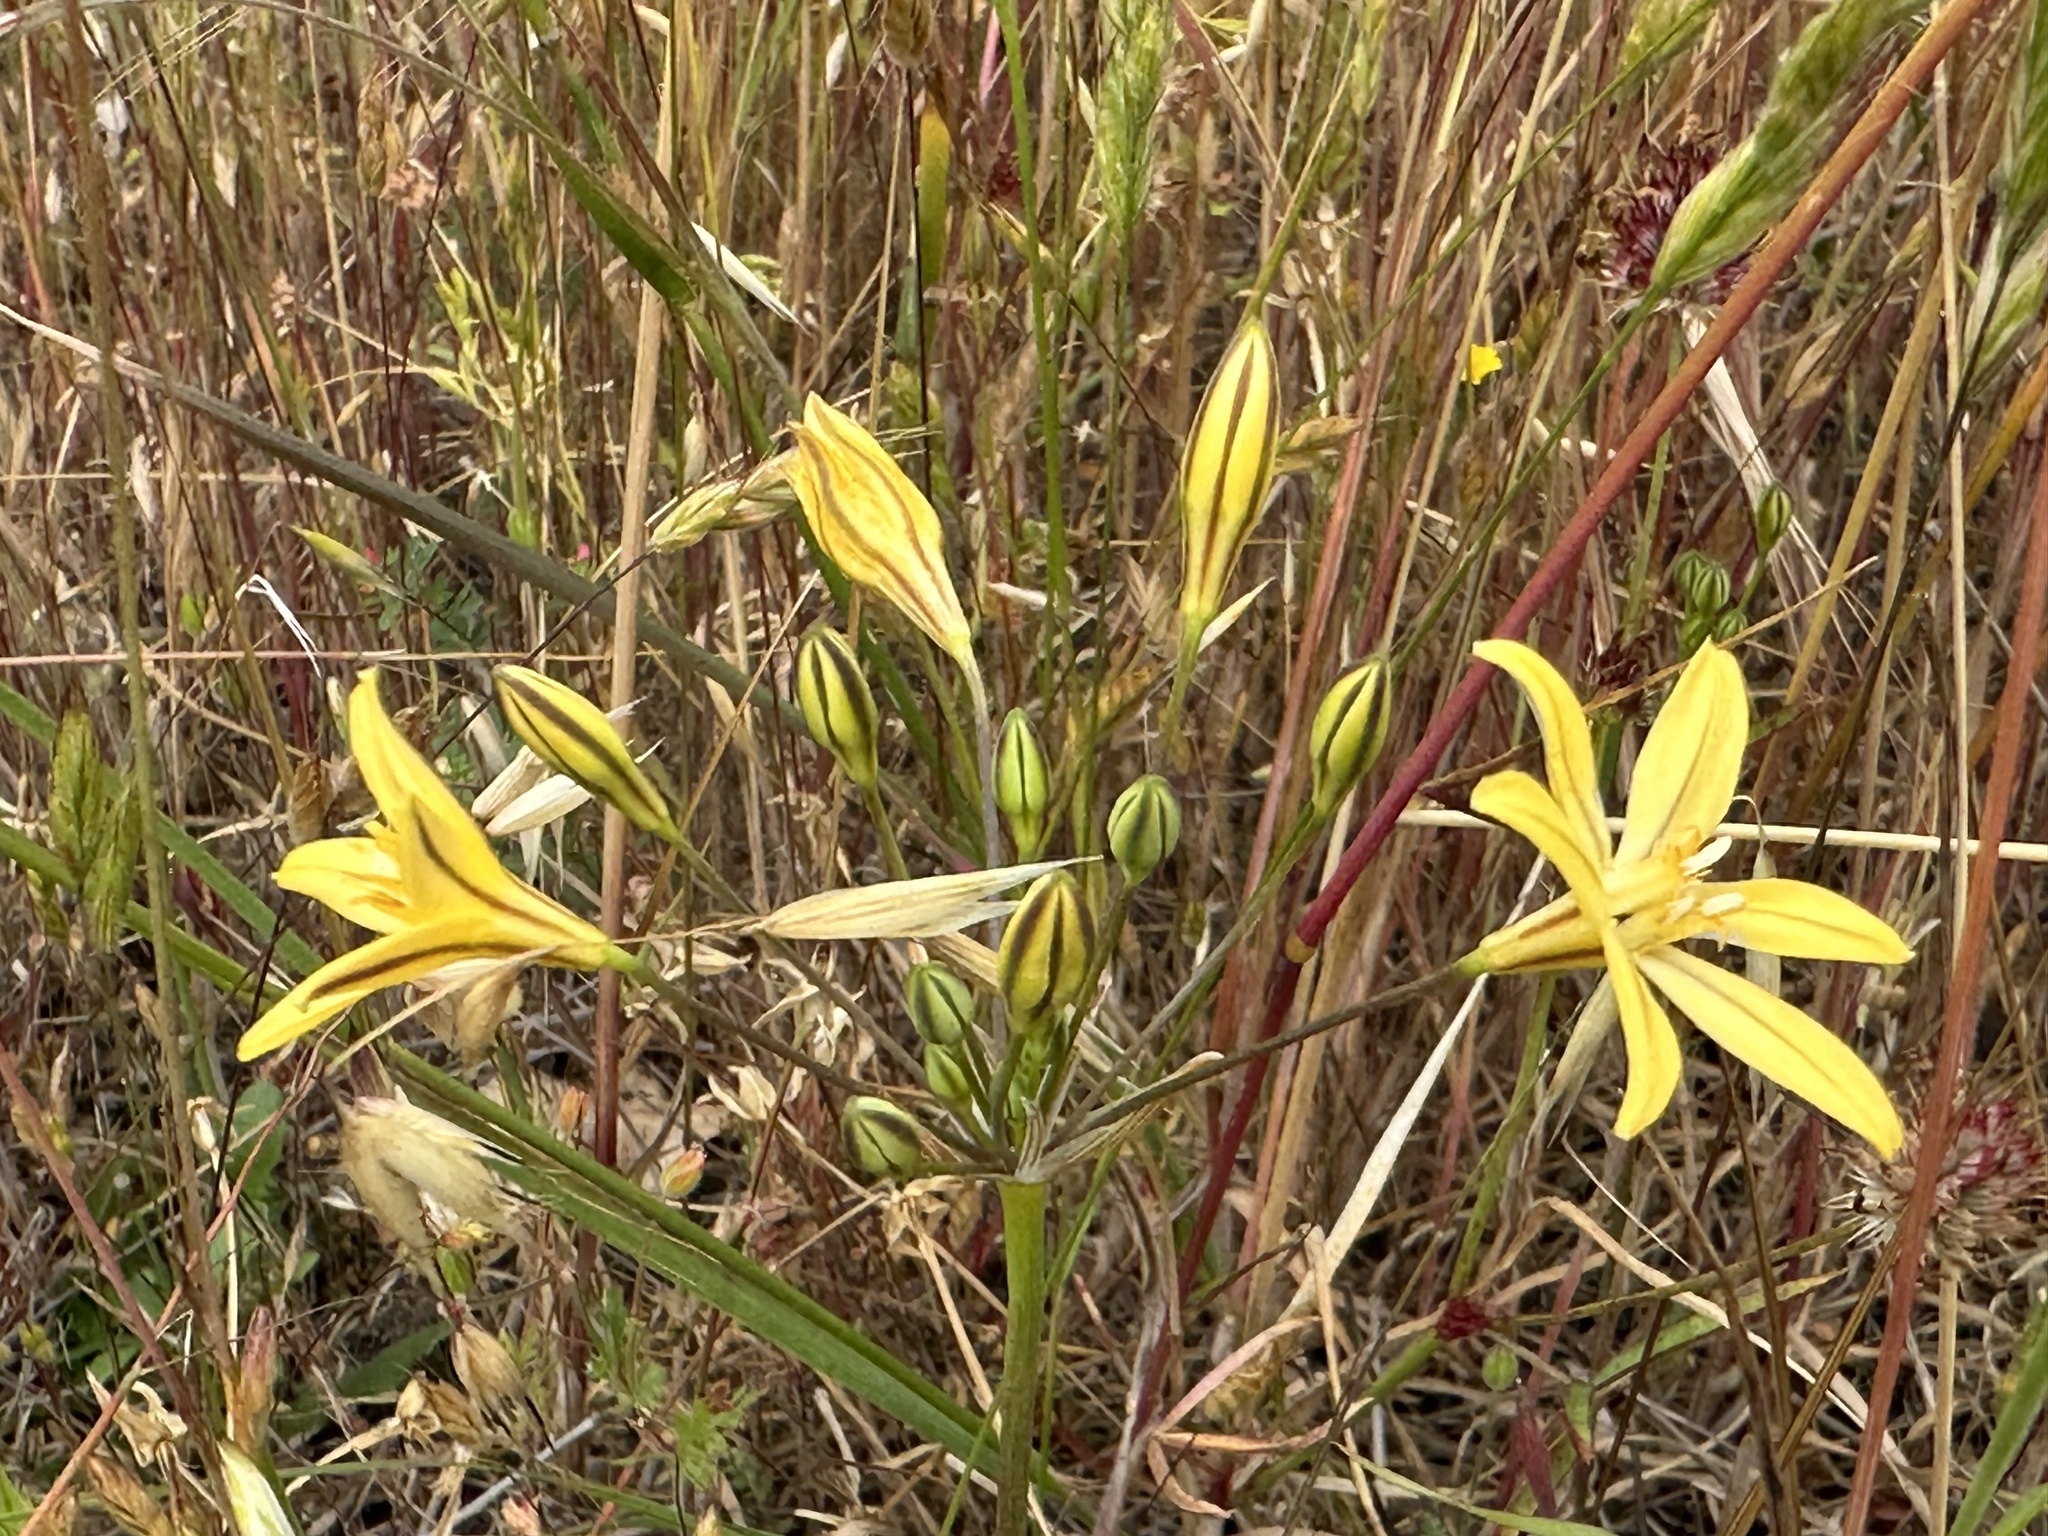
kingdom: Plantae
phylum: Tracheophyta
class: Liliopsida
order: Asparagales
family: Asparagaceae
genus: Triteleia
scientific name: Triteleia ixioides
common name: Yellow-brodiaea
